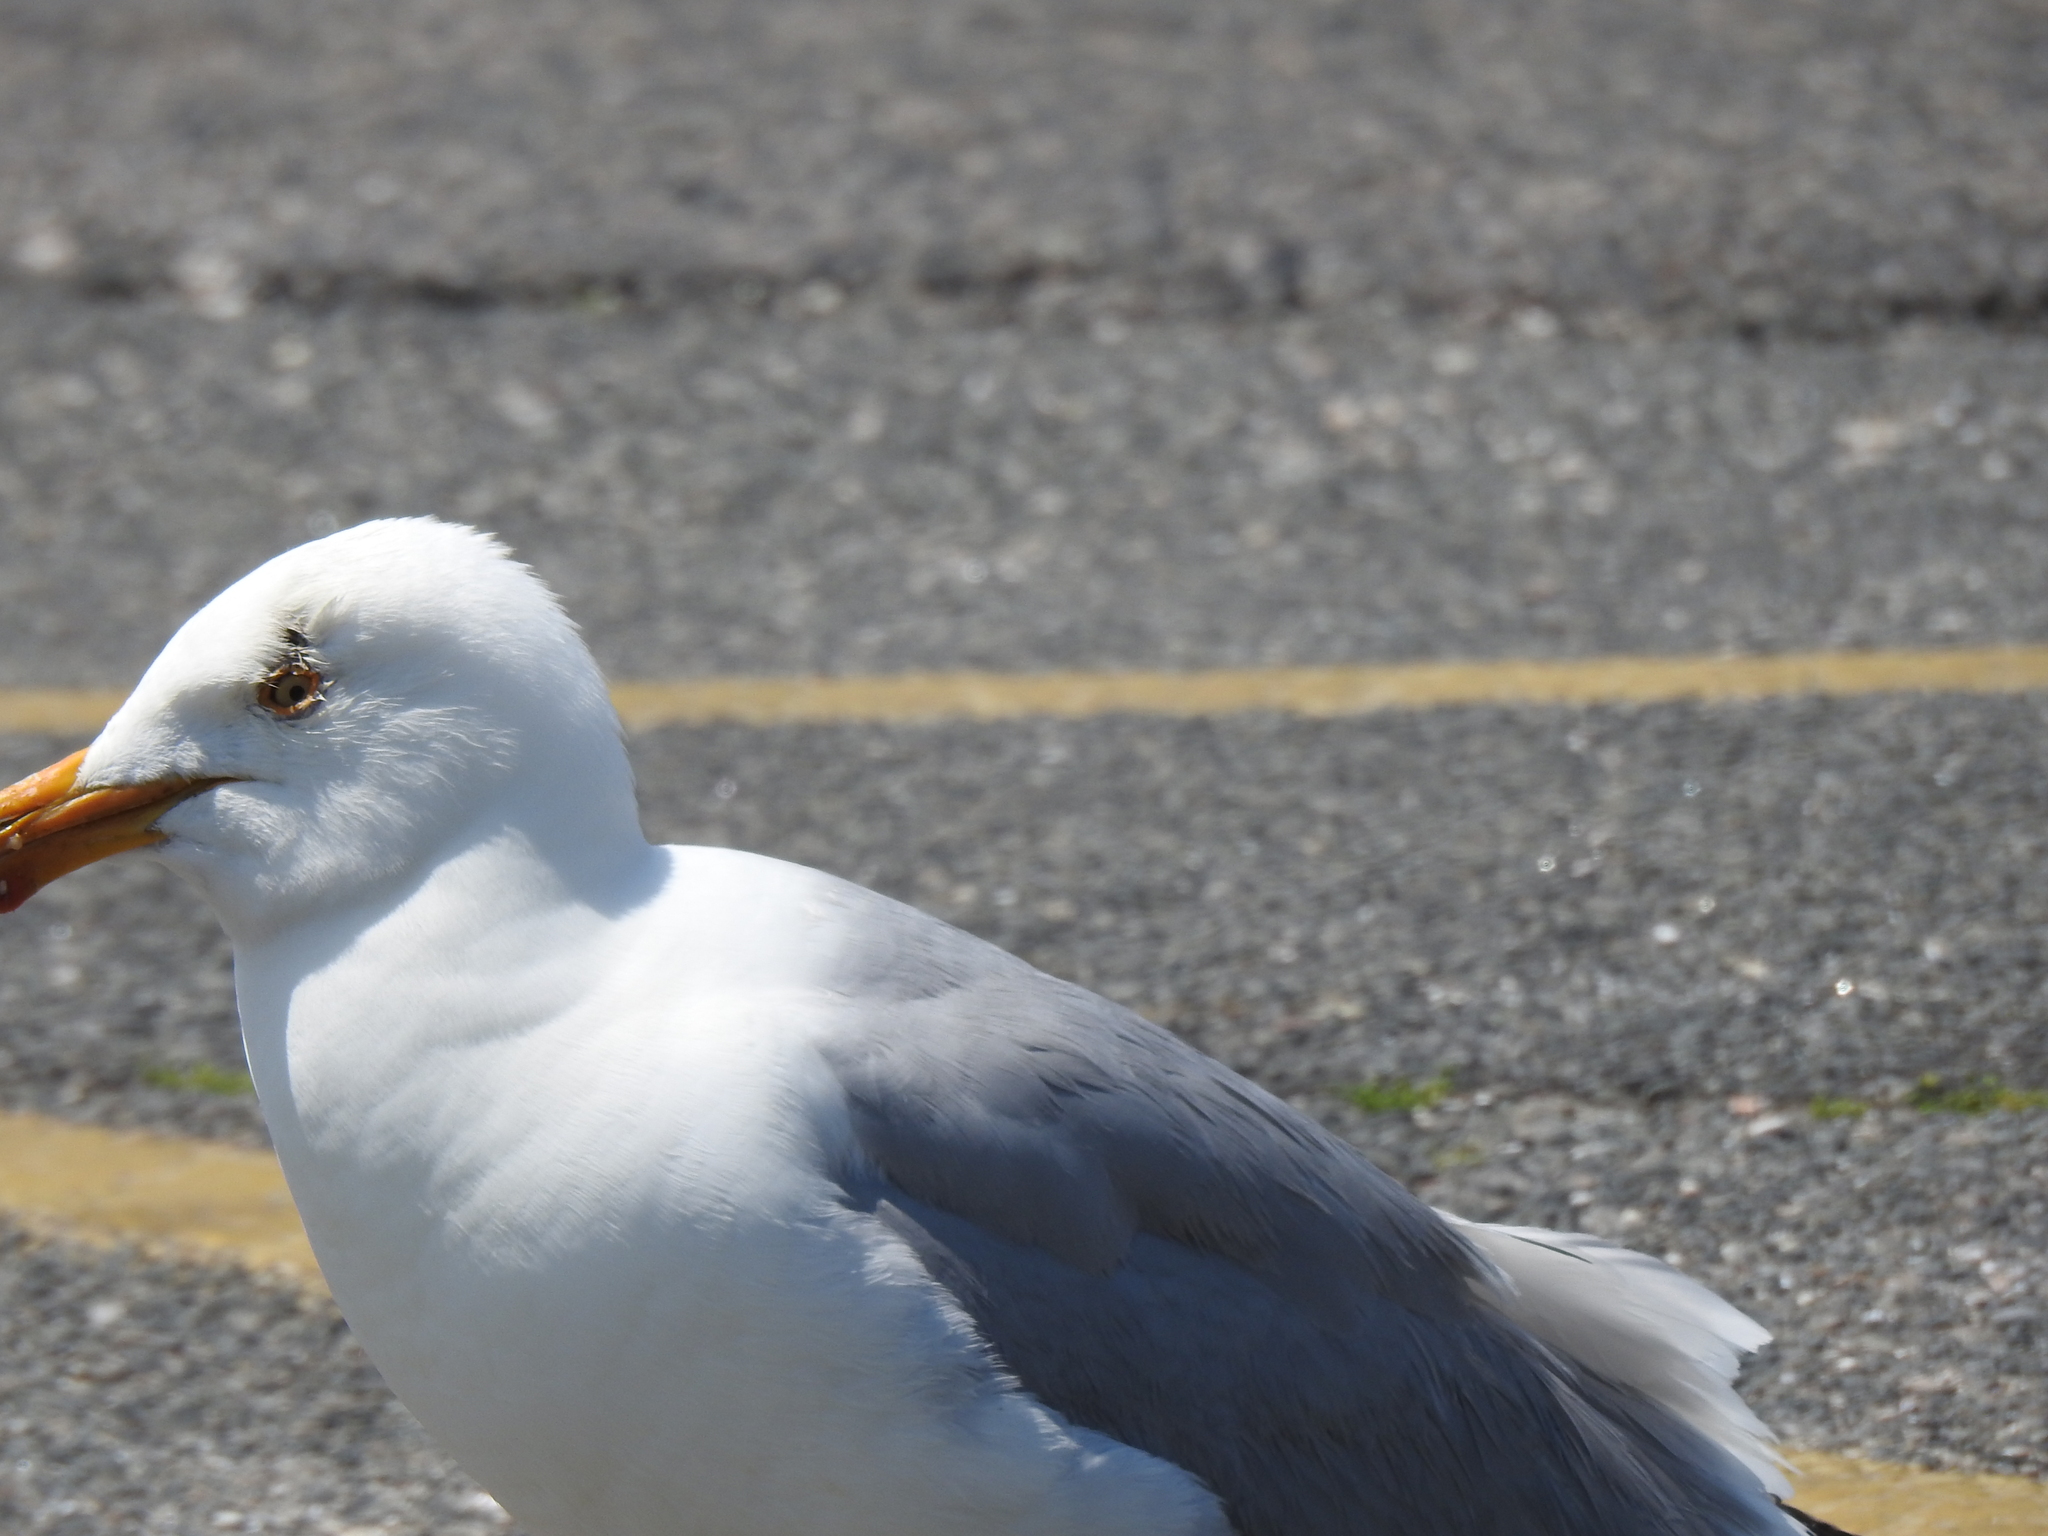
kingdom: Animalia
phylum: Chordata
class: Aves
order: Charadriiformes
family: Laridae
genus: Larus
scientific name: Larus argentatus
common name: Herring gull
